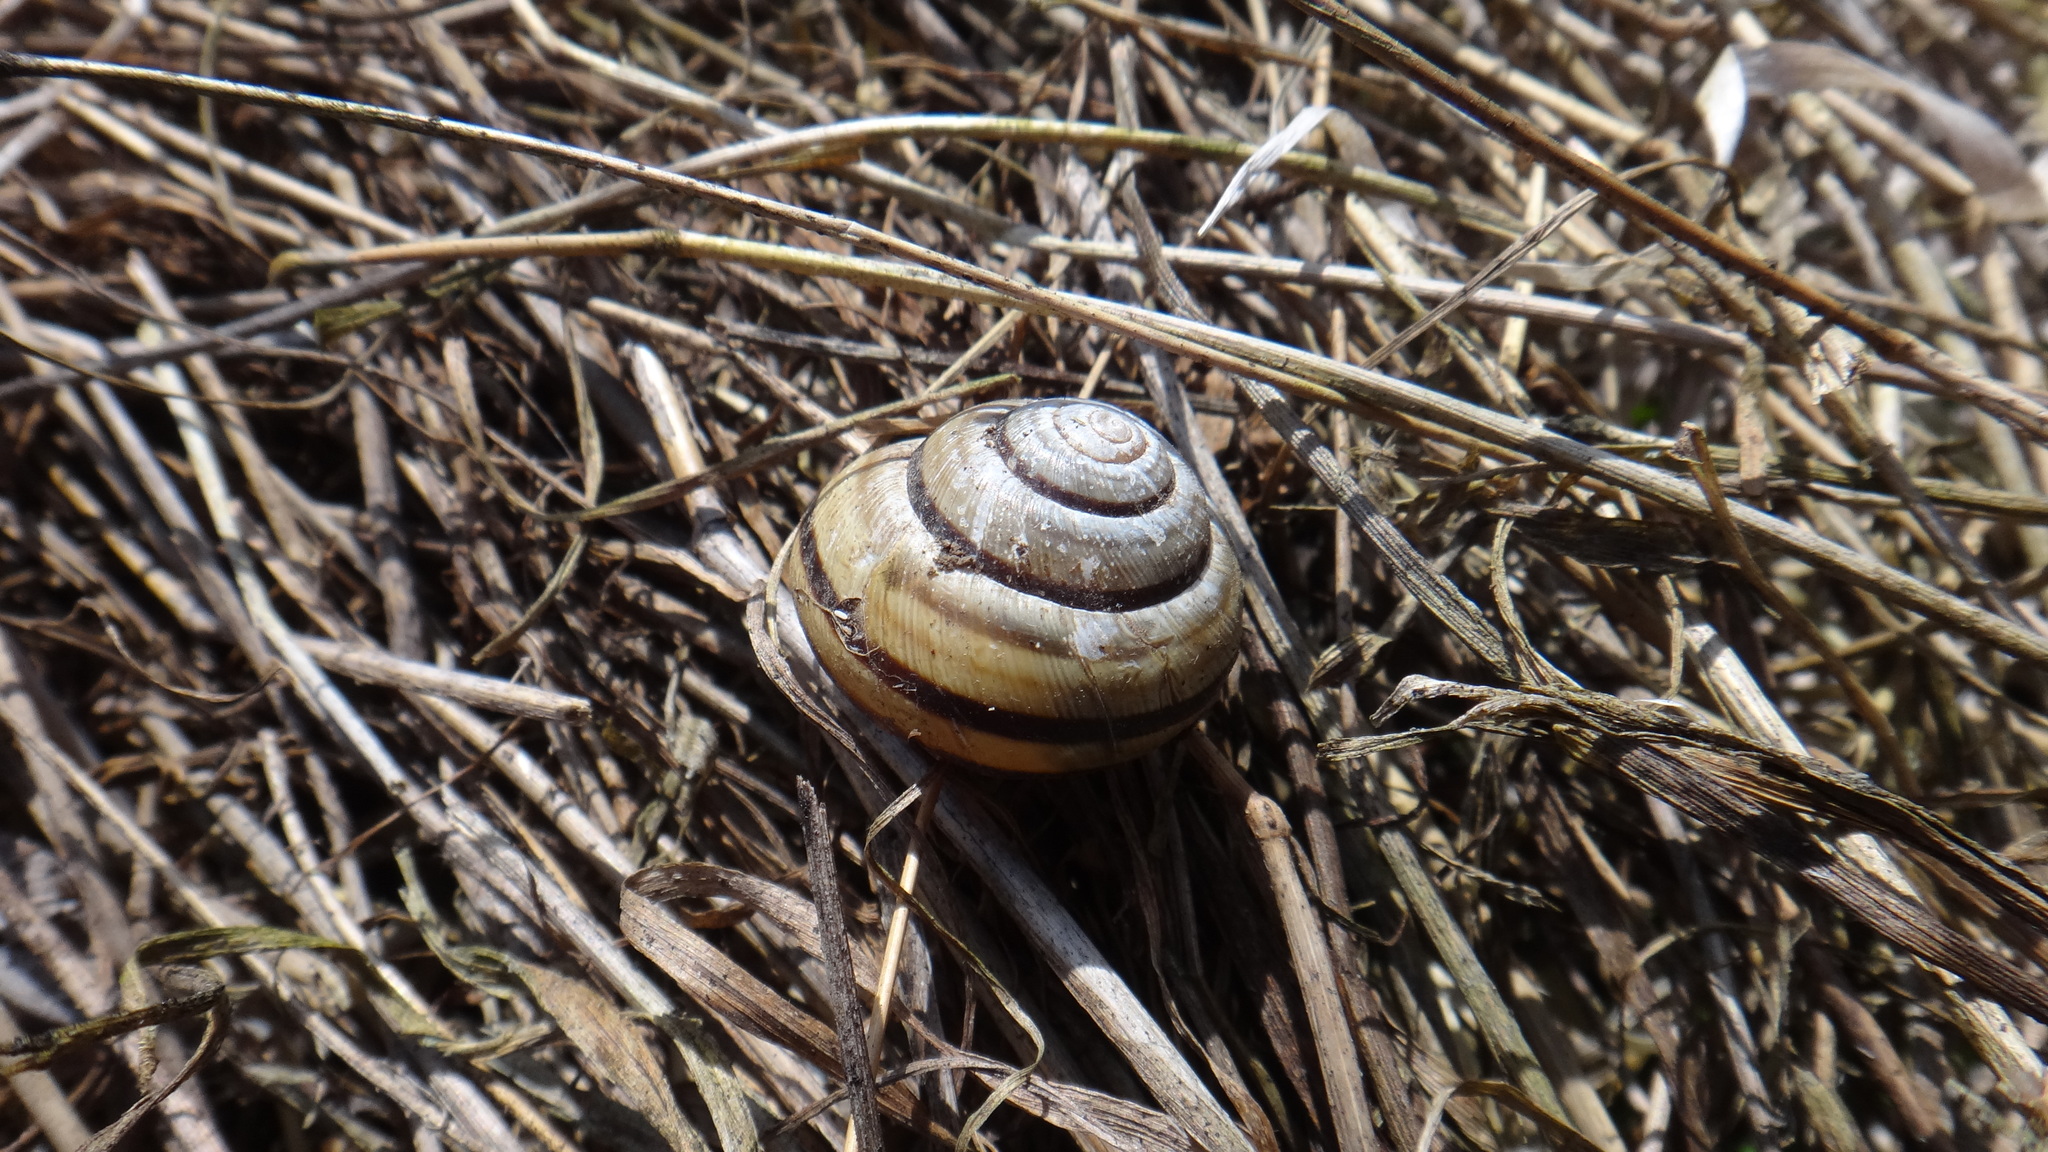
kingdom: Animalia
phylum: Mollusca
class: Gastropoda
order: Stylommatophora
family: Helicidae
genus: Caucasotachea
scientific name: Caucasotachea vindobonensis
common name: European helicid land snail
